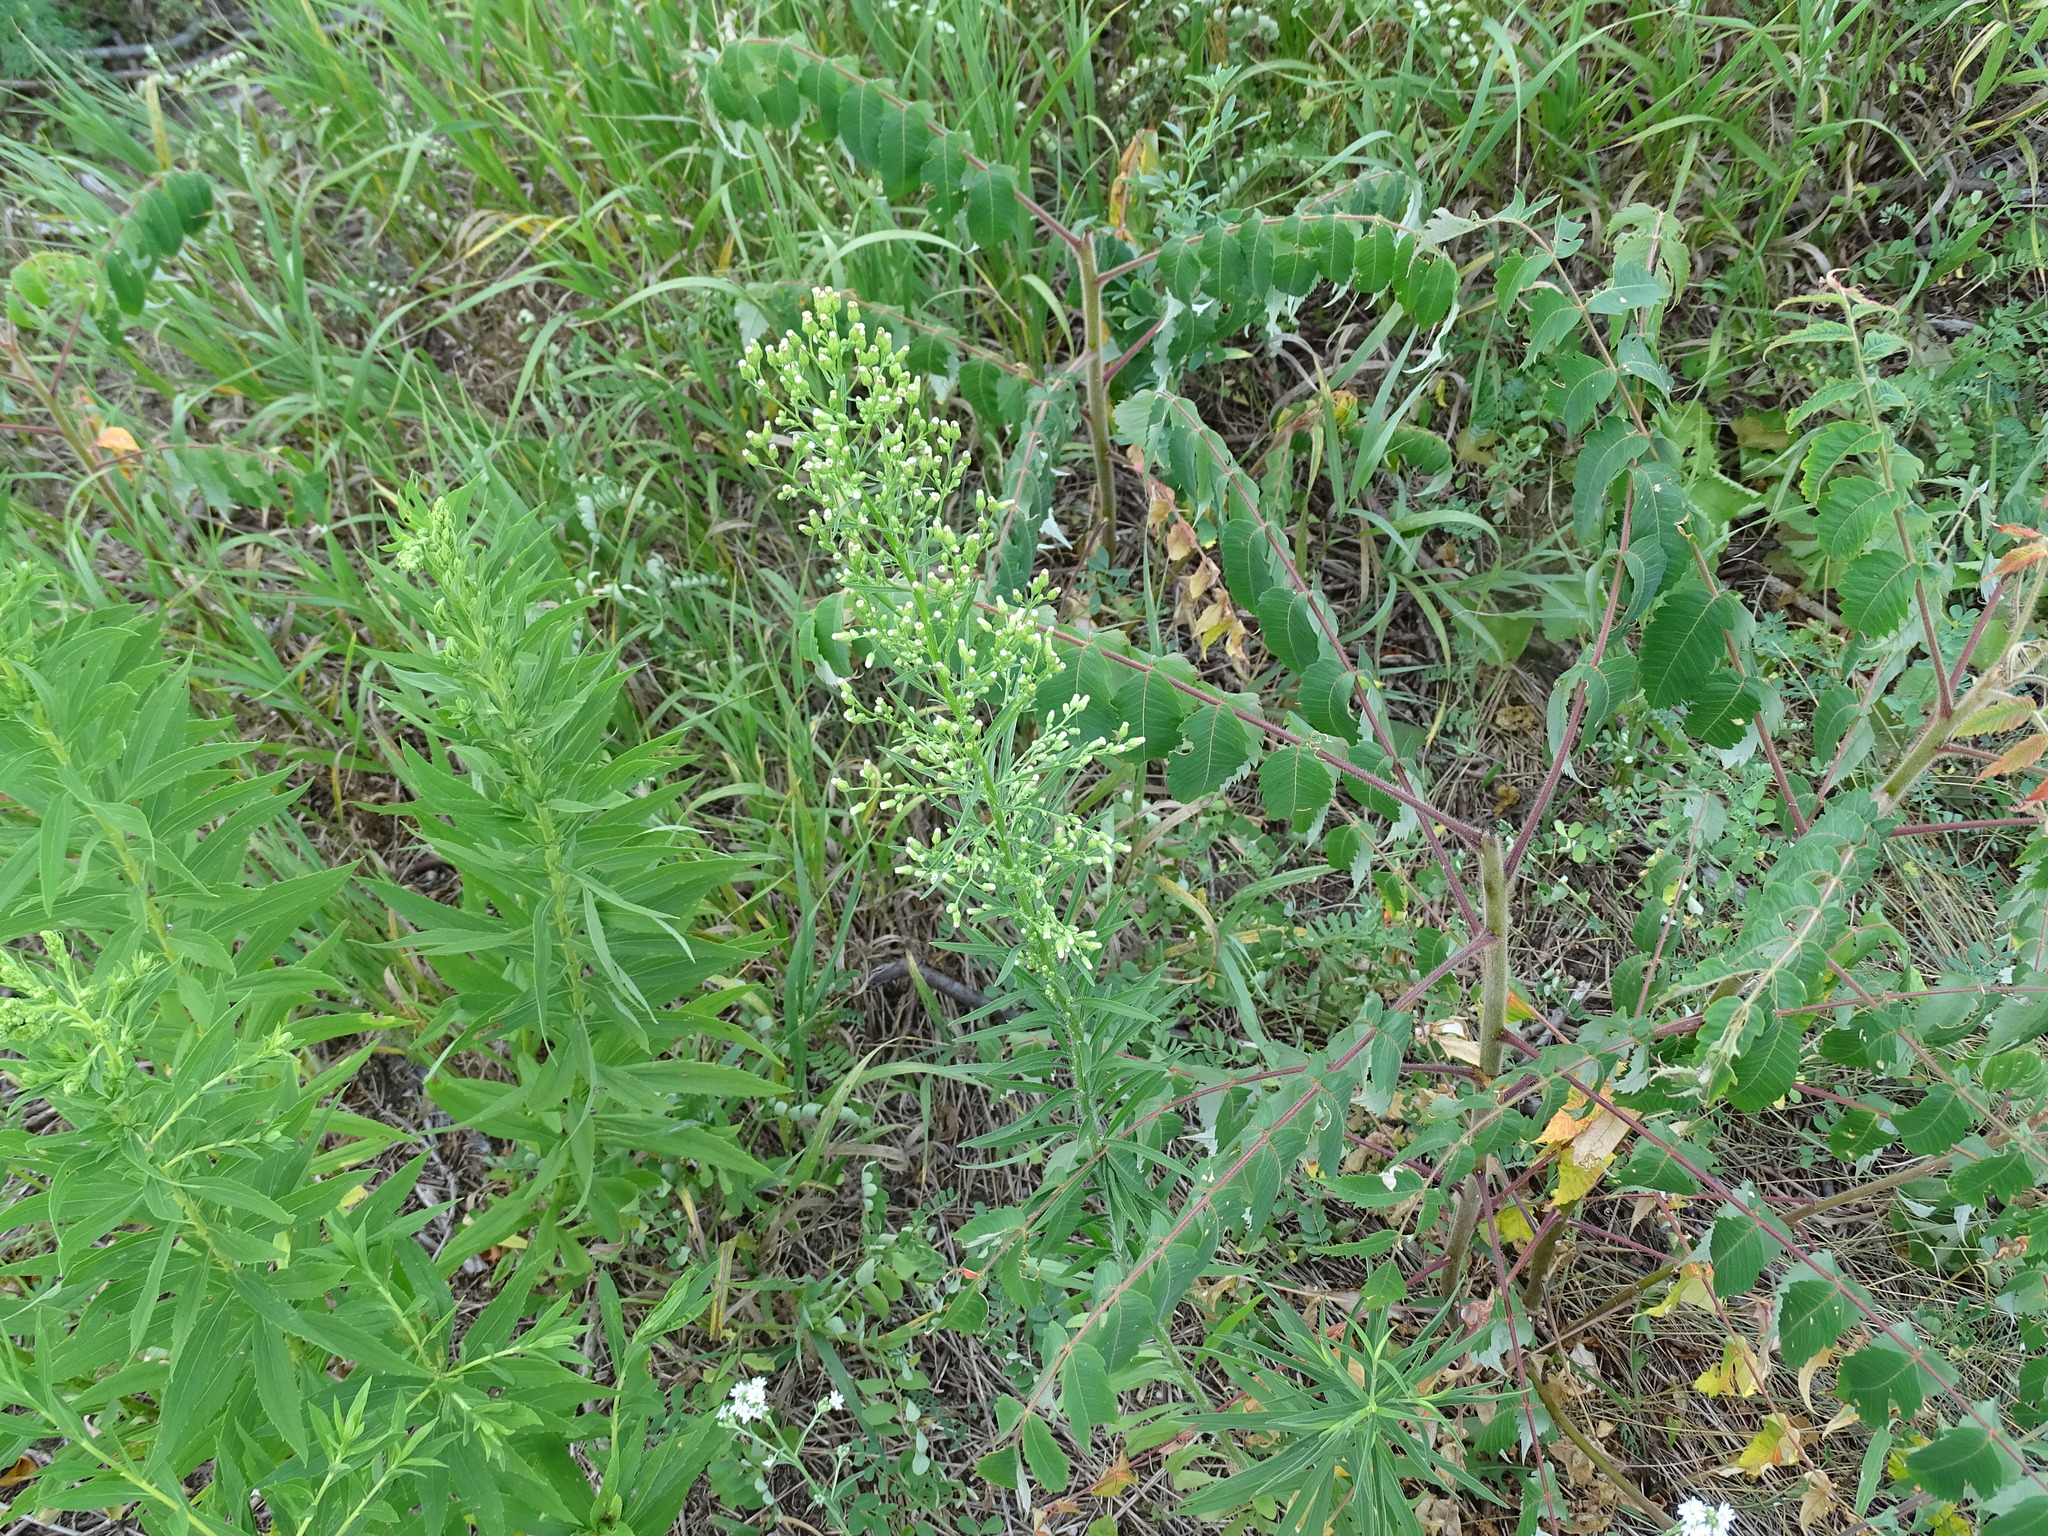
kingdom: Plantae
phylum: Tracheophyta
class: Magnoliopsida
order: Asterales
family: Asteraceae
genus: Erigeron
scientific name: Erigeron canadensis
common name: Canadian fleabane
